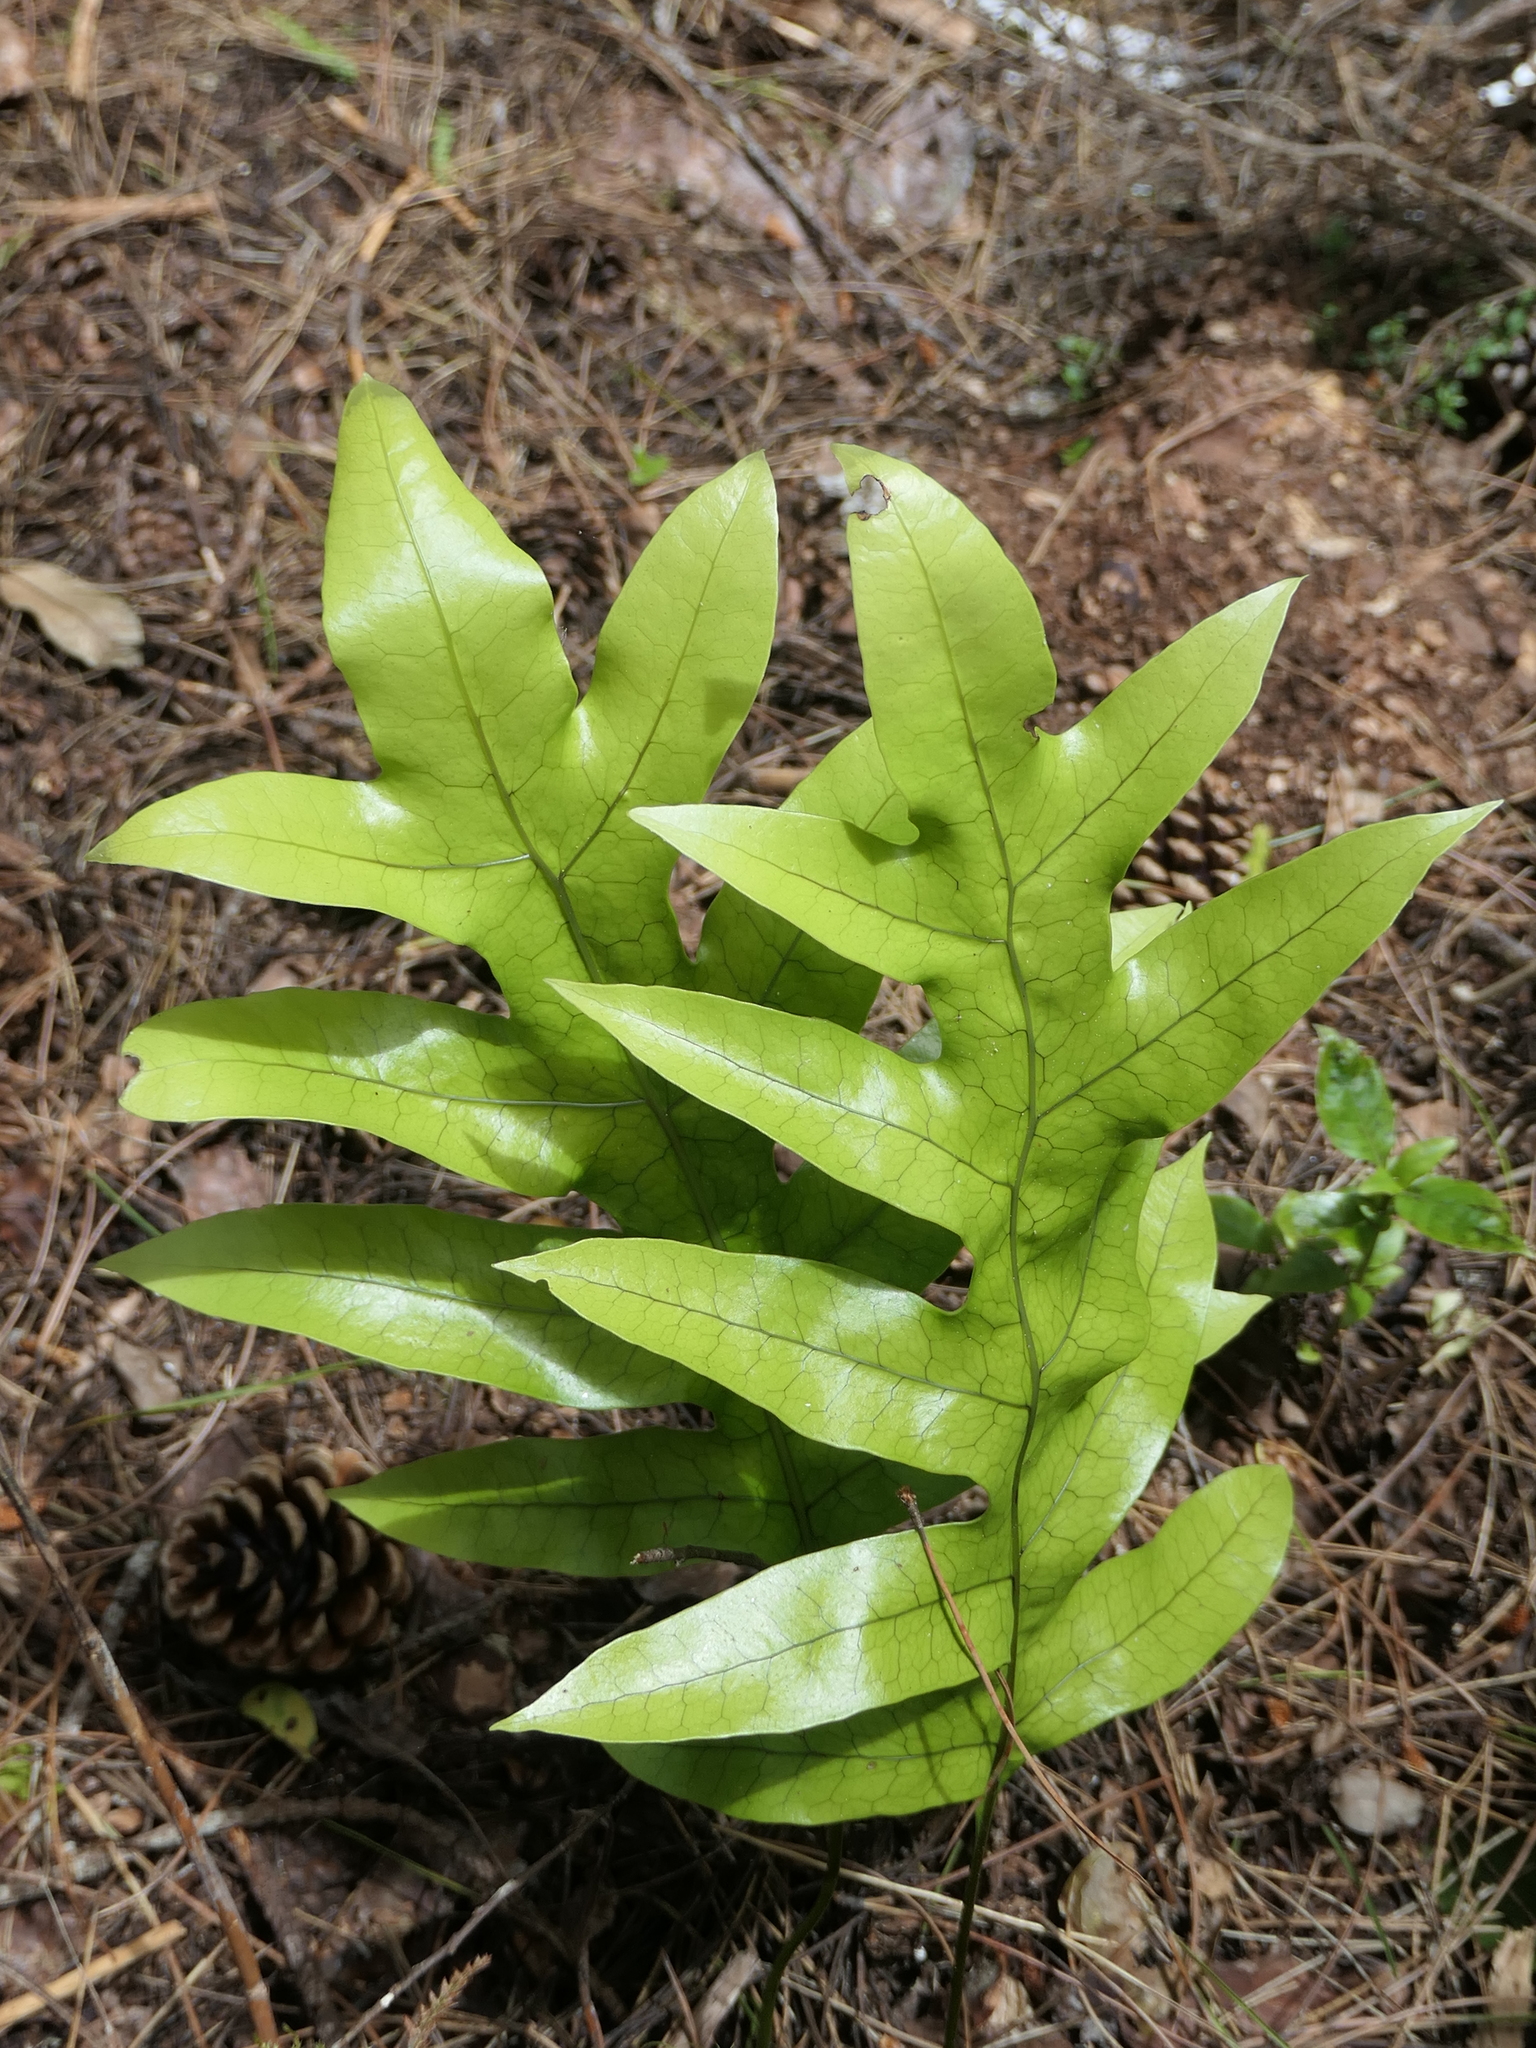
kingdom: Plantae
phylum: Tracheophyta
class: Polypodiopsida
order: Polypodiales
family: Polypodiaceae
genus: Lecanopteris
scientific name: Lecanopteris pustulata
